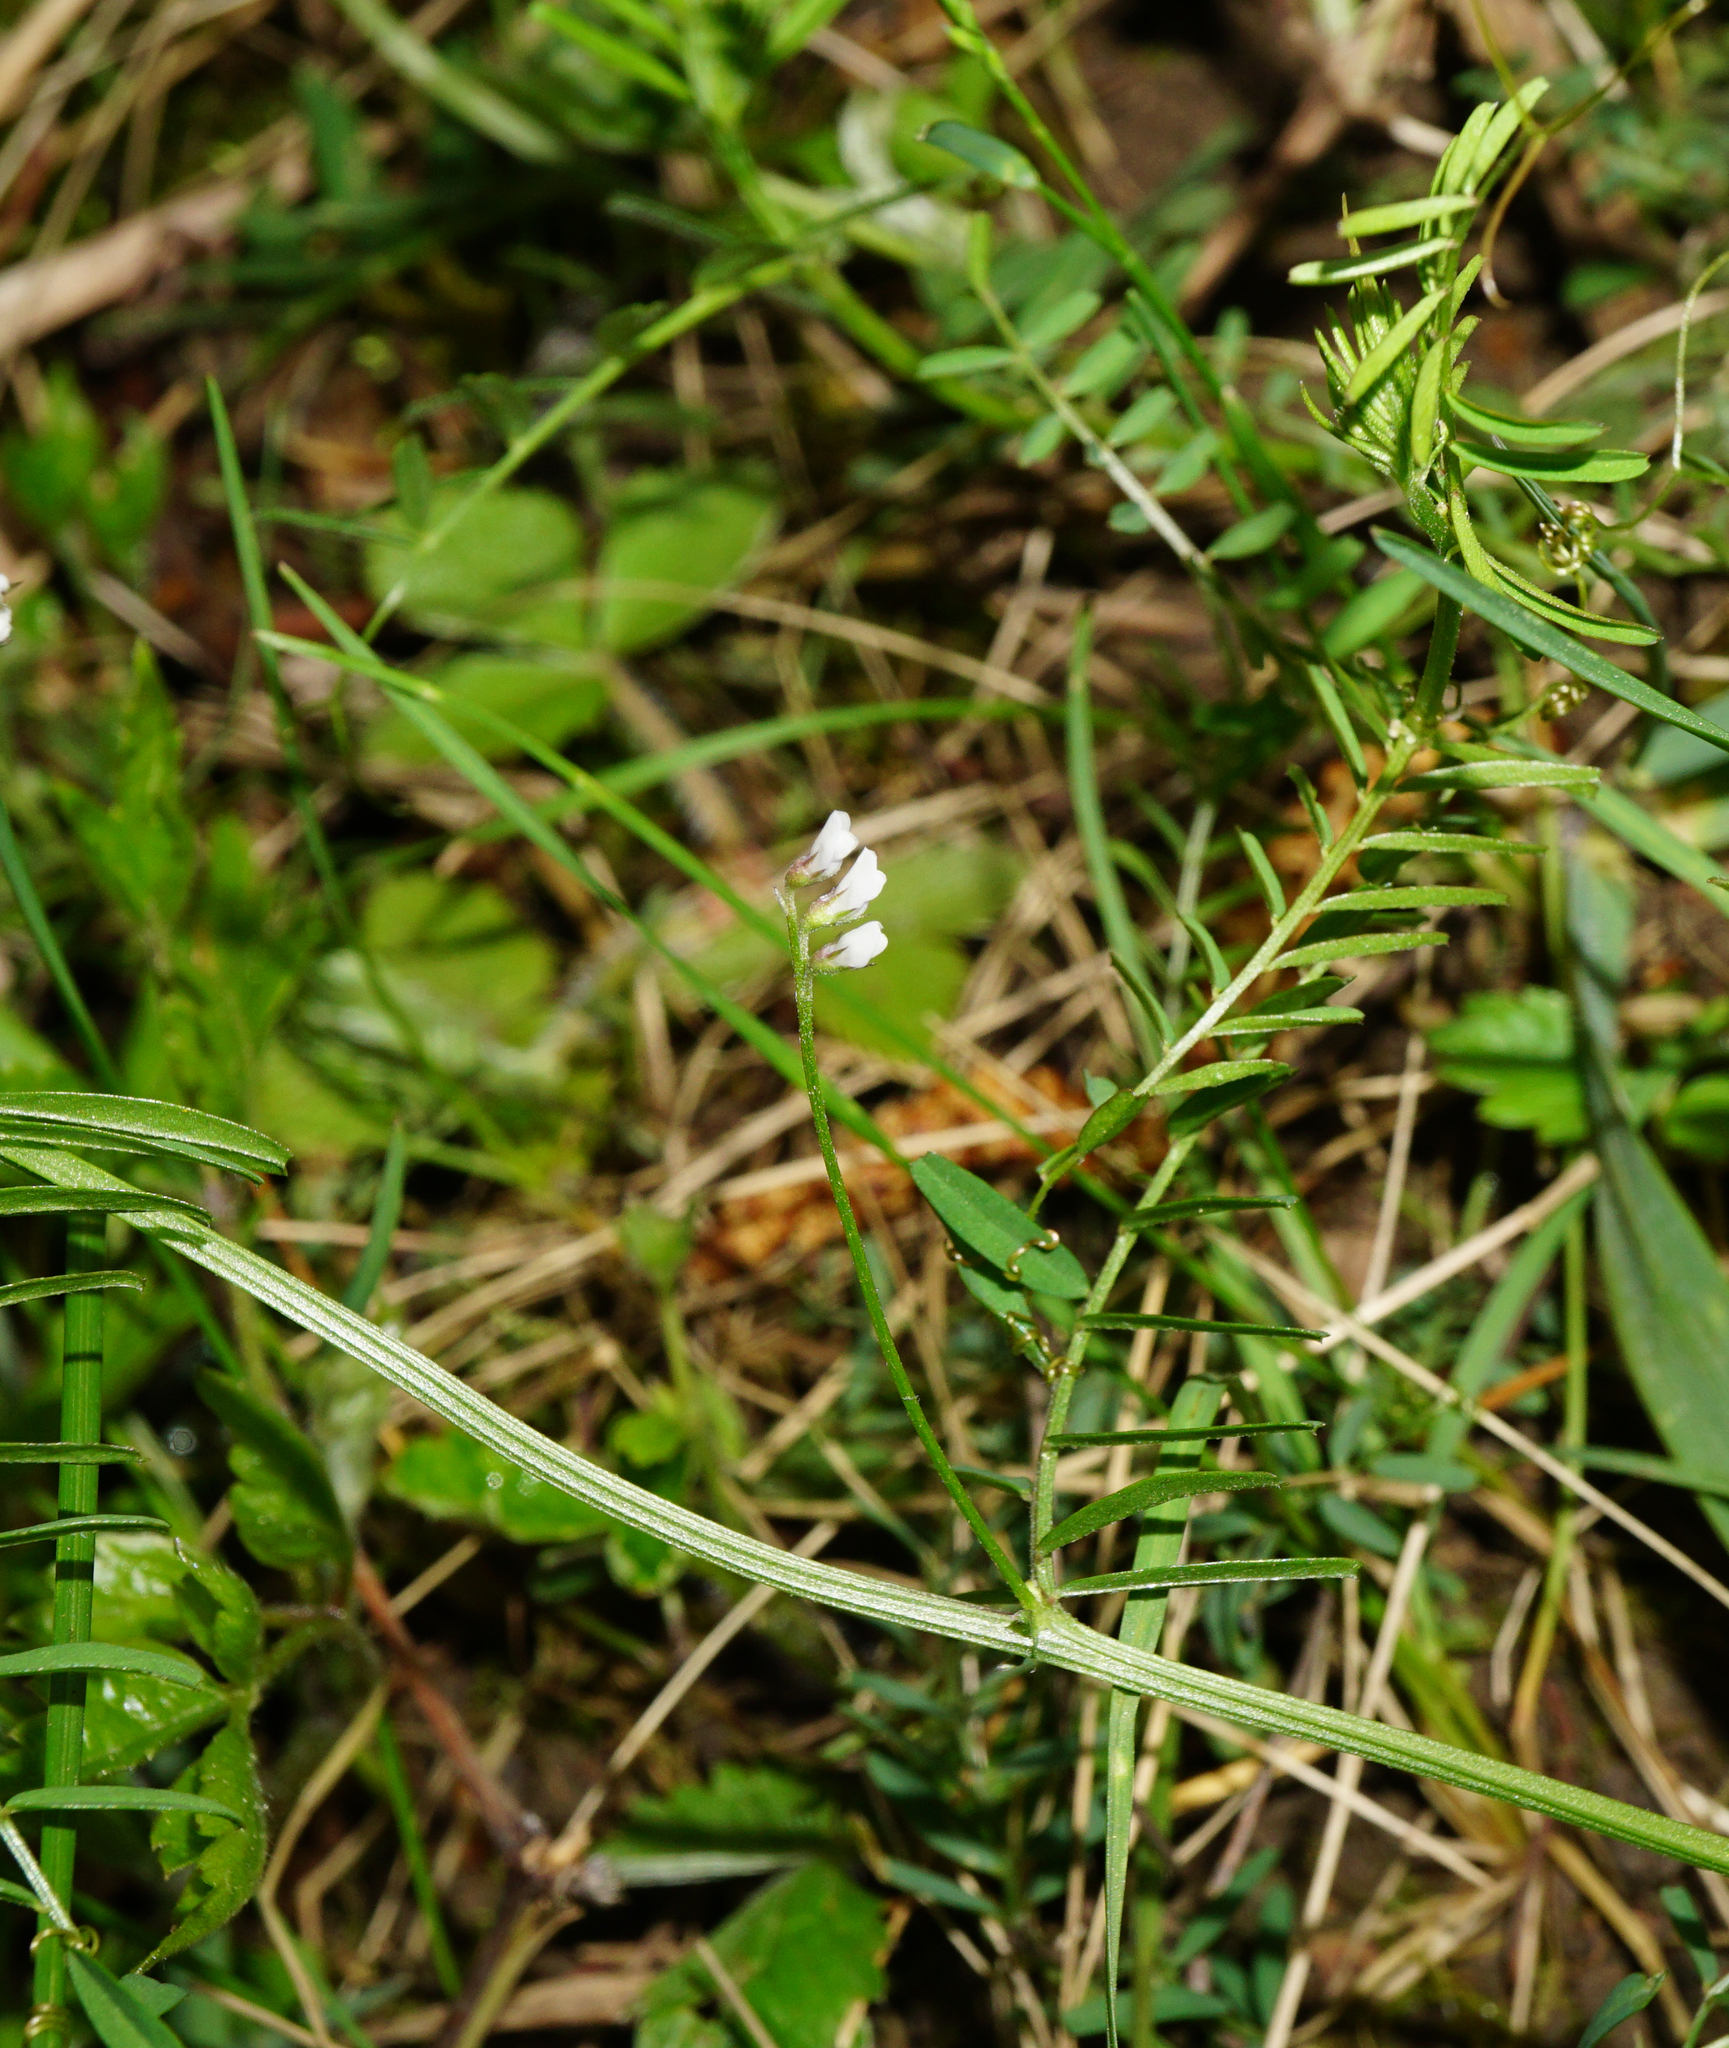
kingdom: Plantae
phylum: Tracheophyta
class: Magnoliopsida
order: Fabales
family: Fabaceae
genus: Vicia
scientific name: Vicia hirsuta
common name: Tiny vetch
